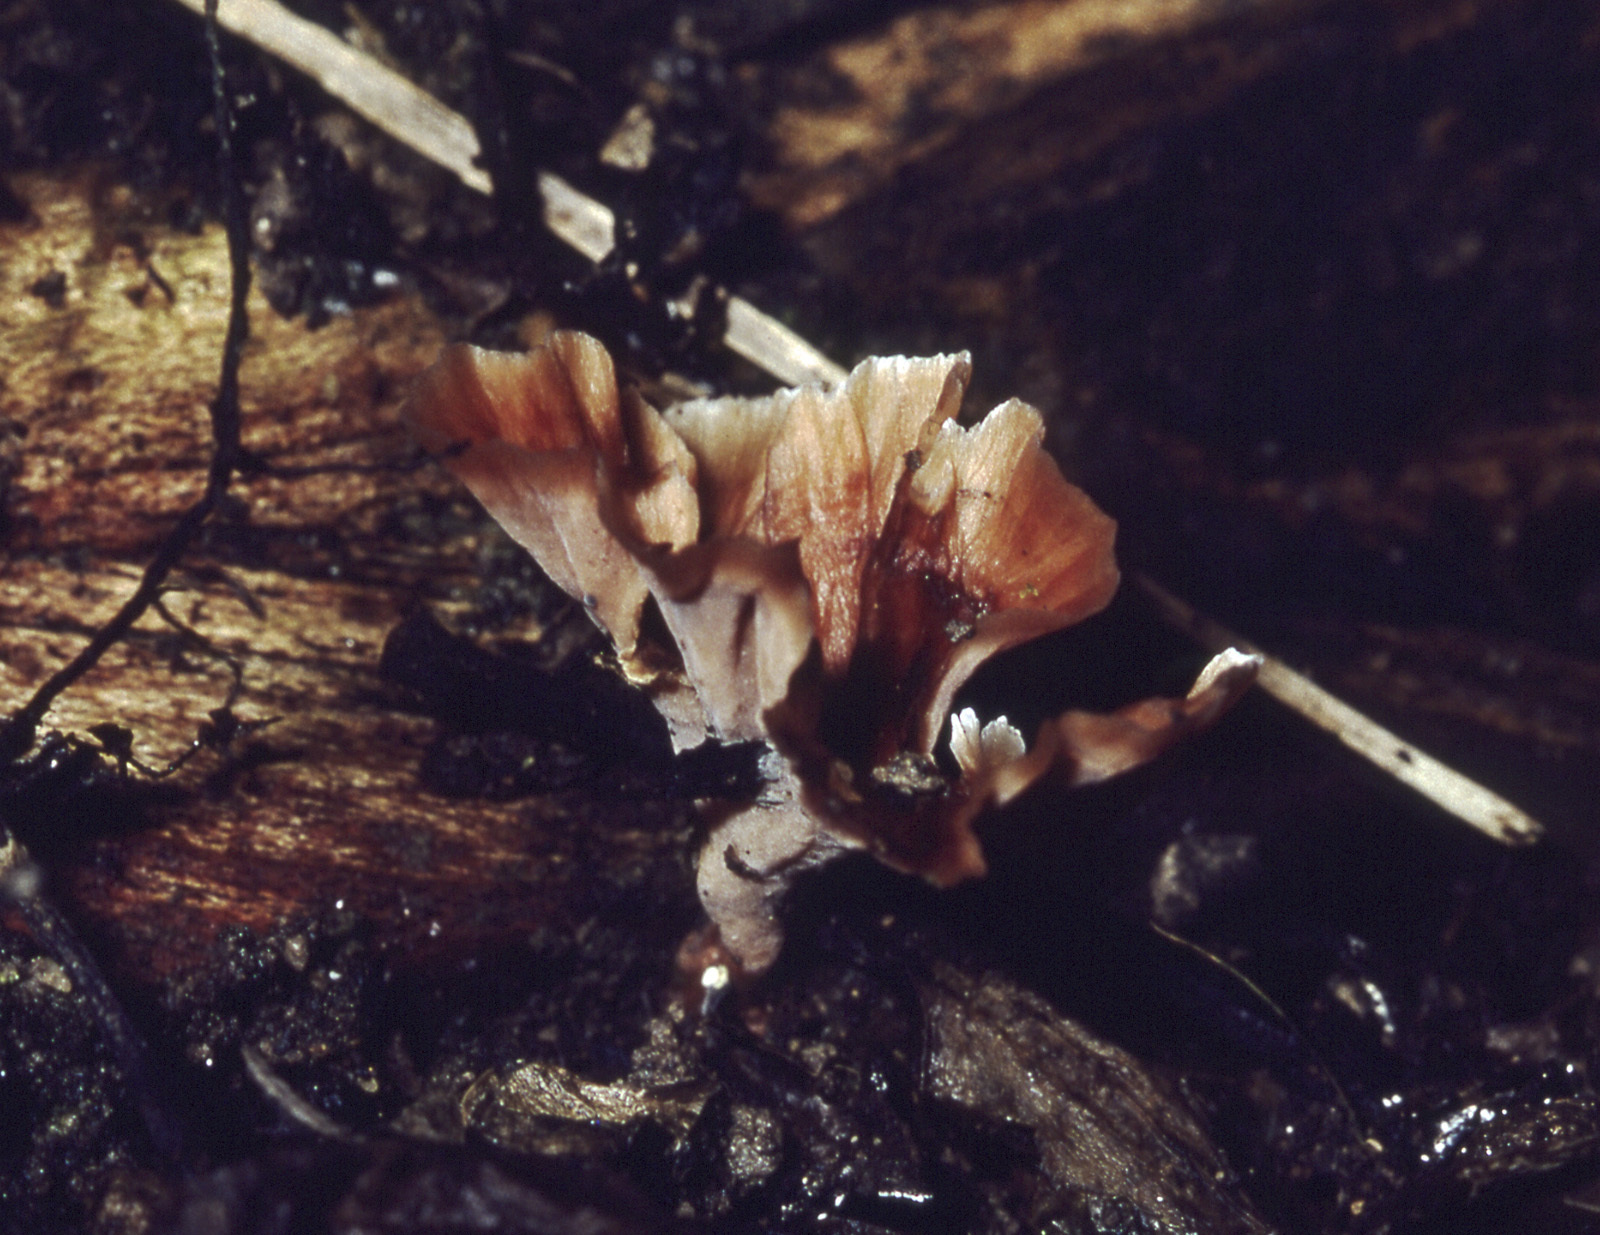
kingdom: Fungi
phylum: Basidiomycota
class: Agaricomycetes
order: Polyporales
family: Podoscyphaceae
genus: Podoscypha
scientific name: Podoscypha petalodes
